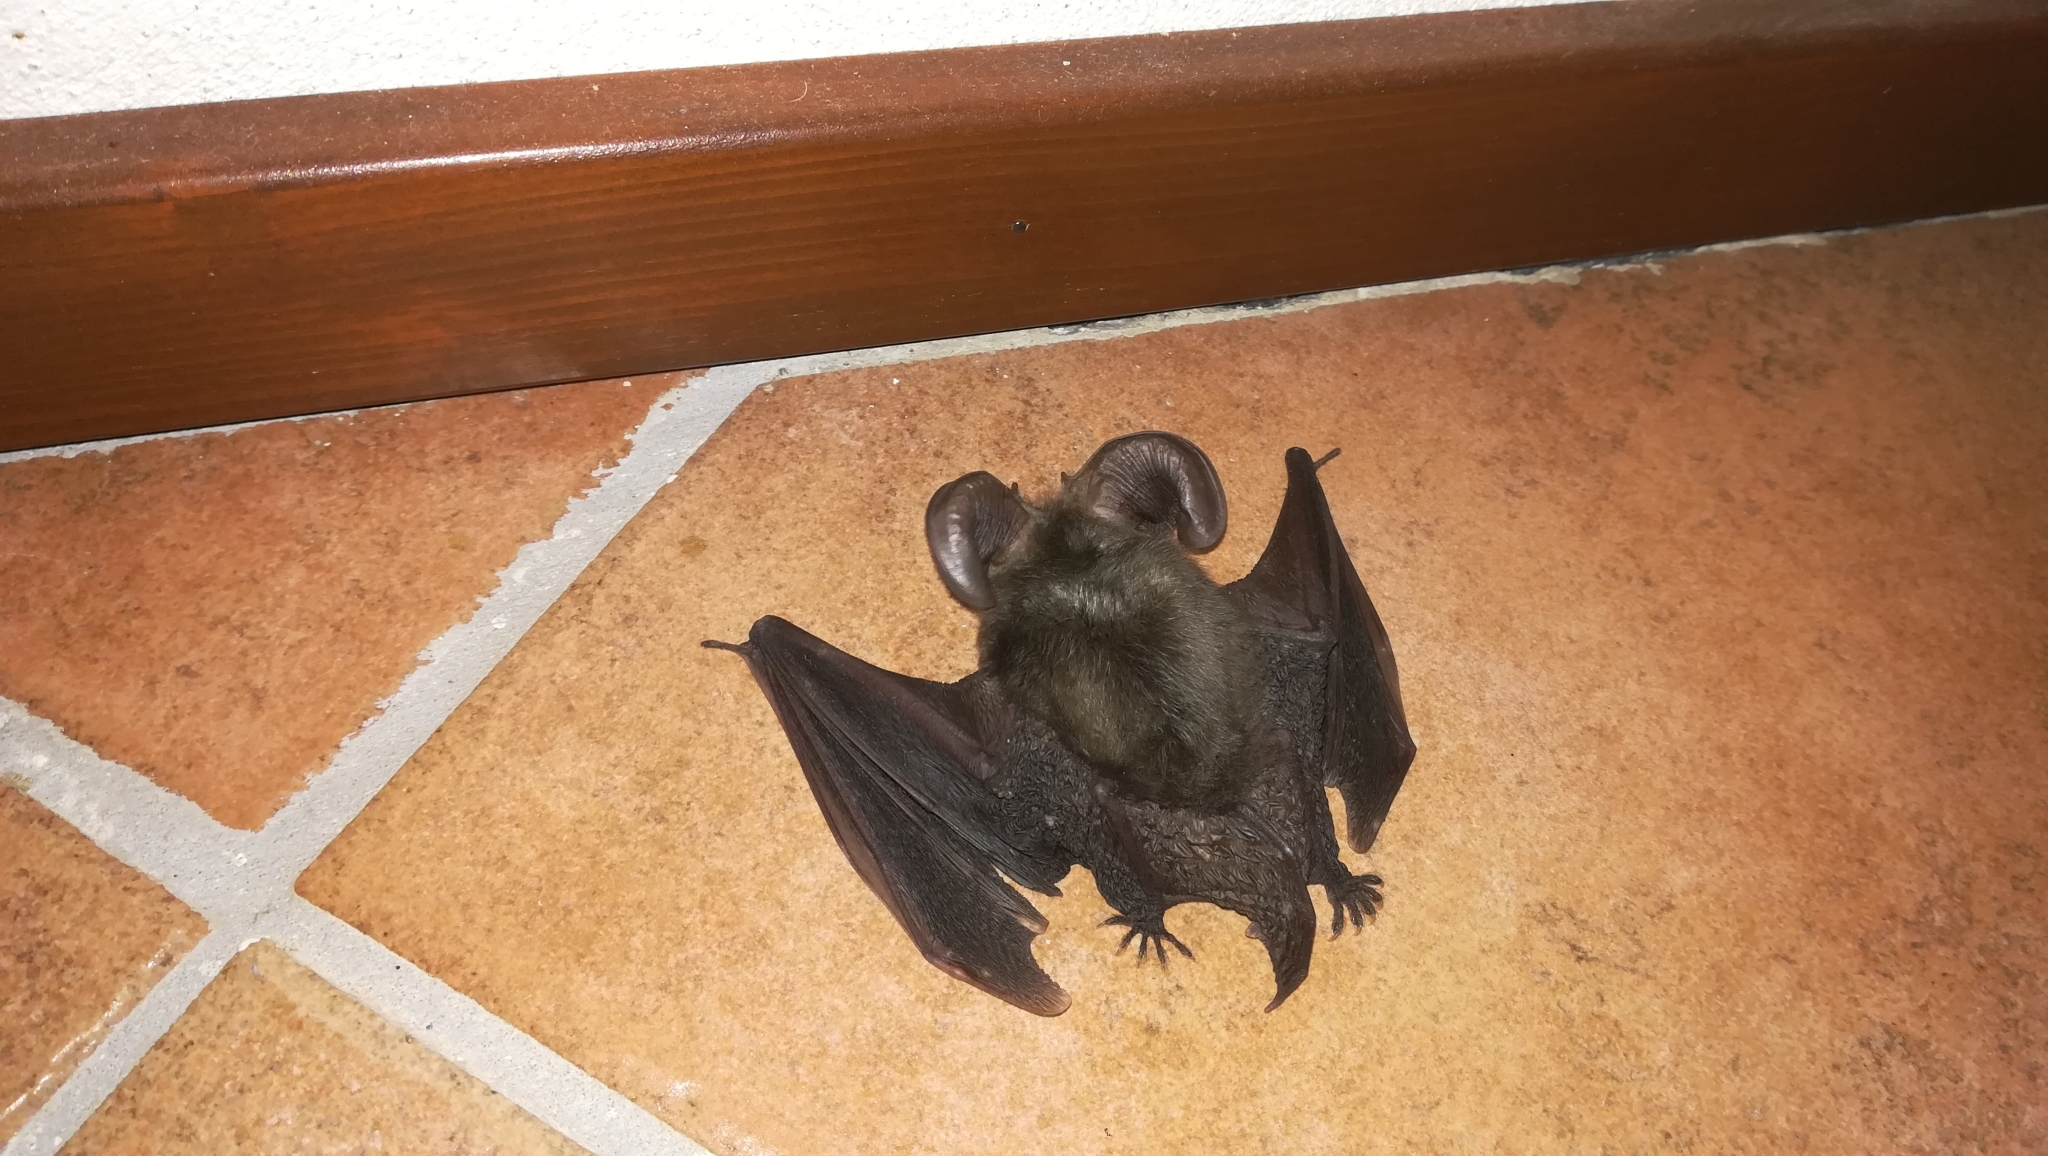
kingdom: Animalia
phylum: Chordata
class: Mammalia
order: Chiroptera
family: Vespertilionidae
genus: Plecotus
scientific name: Plecotus austriacus
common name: Grey long-eared bat
